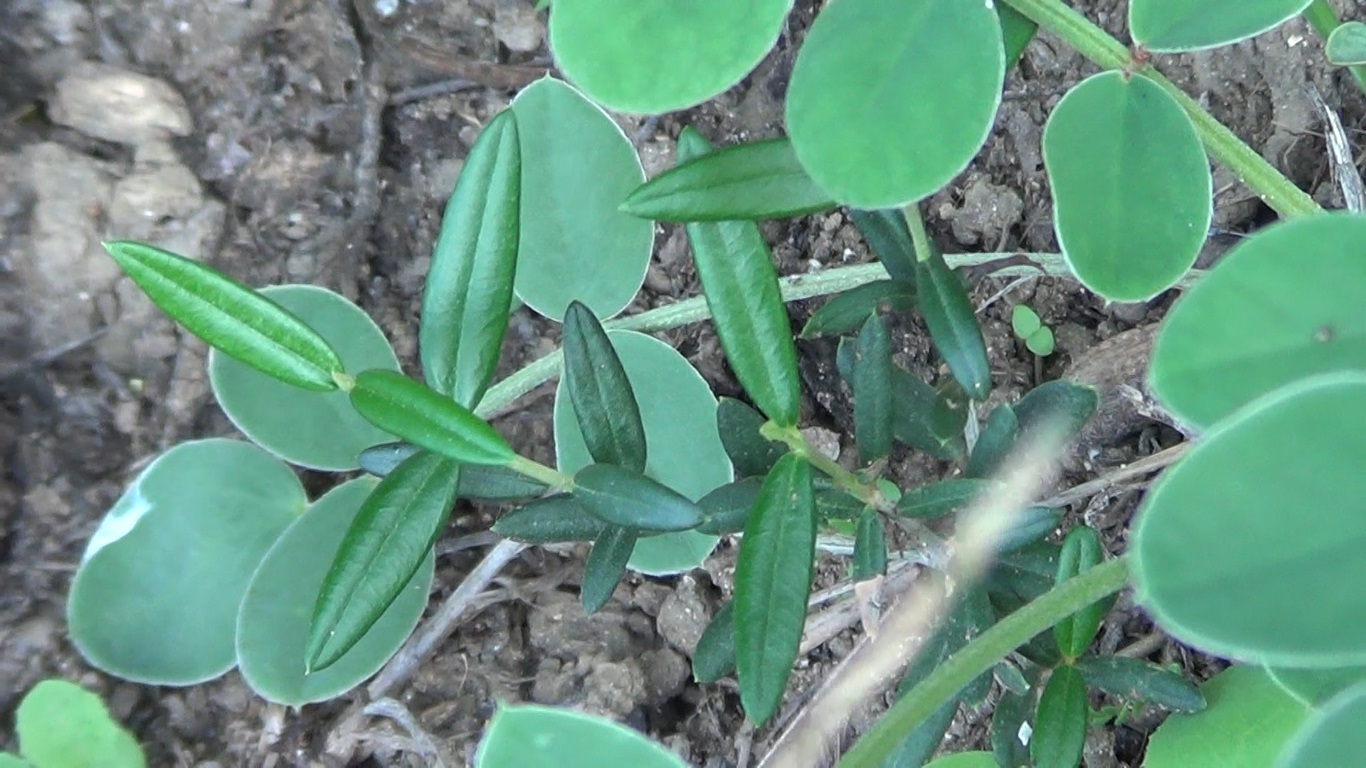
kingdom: Plantae
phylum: Tracheophyta
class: Magnoliopsida
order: Lamiales
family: Oleaceae
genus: Olea
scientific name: Olea europaea
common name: Olive
